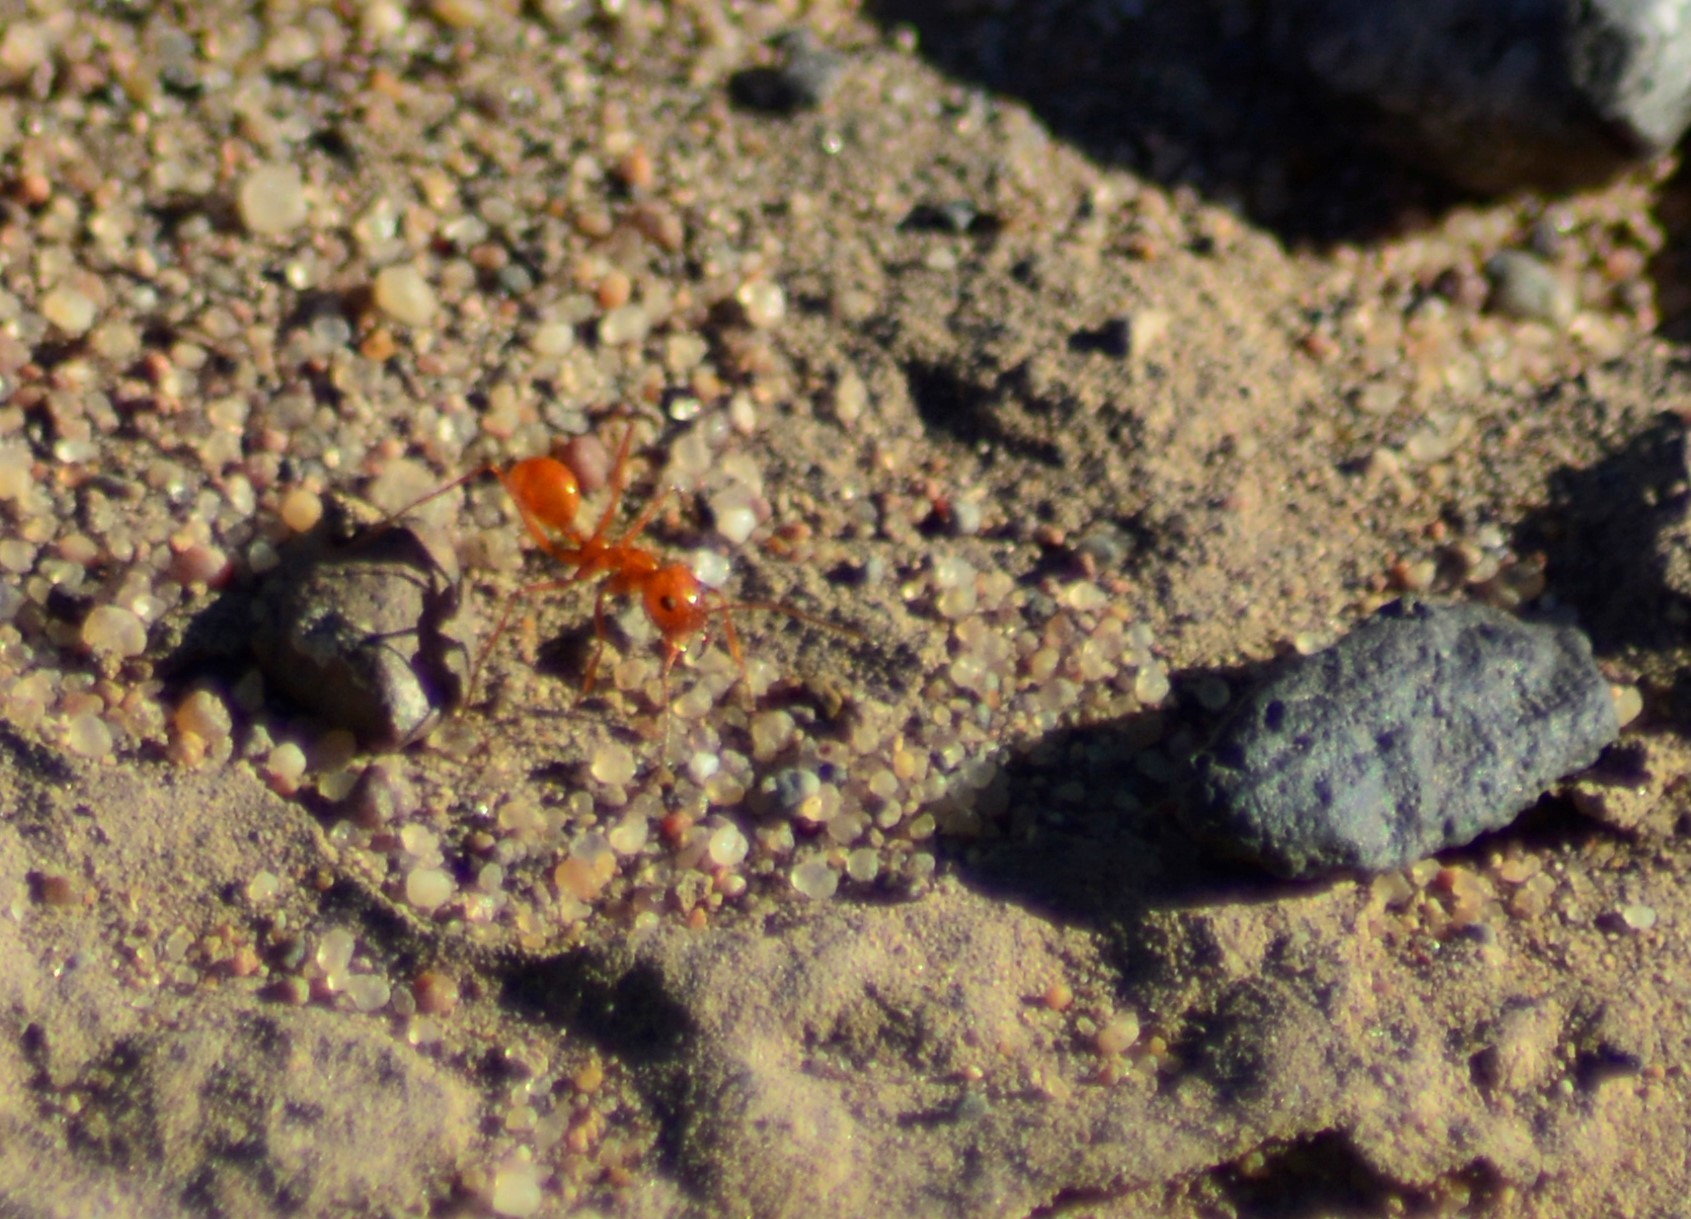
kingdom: Animalia
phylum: Arthropoda
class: Insecta
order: Hymenoptera
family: Formicidae
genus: Dorymyrmex
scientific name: Dorymyrmex planidens
